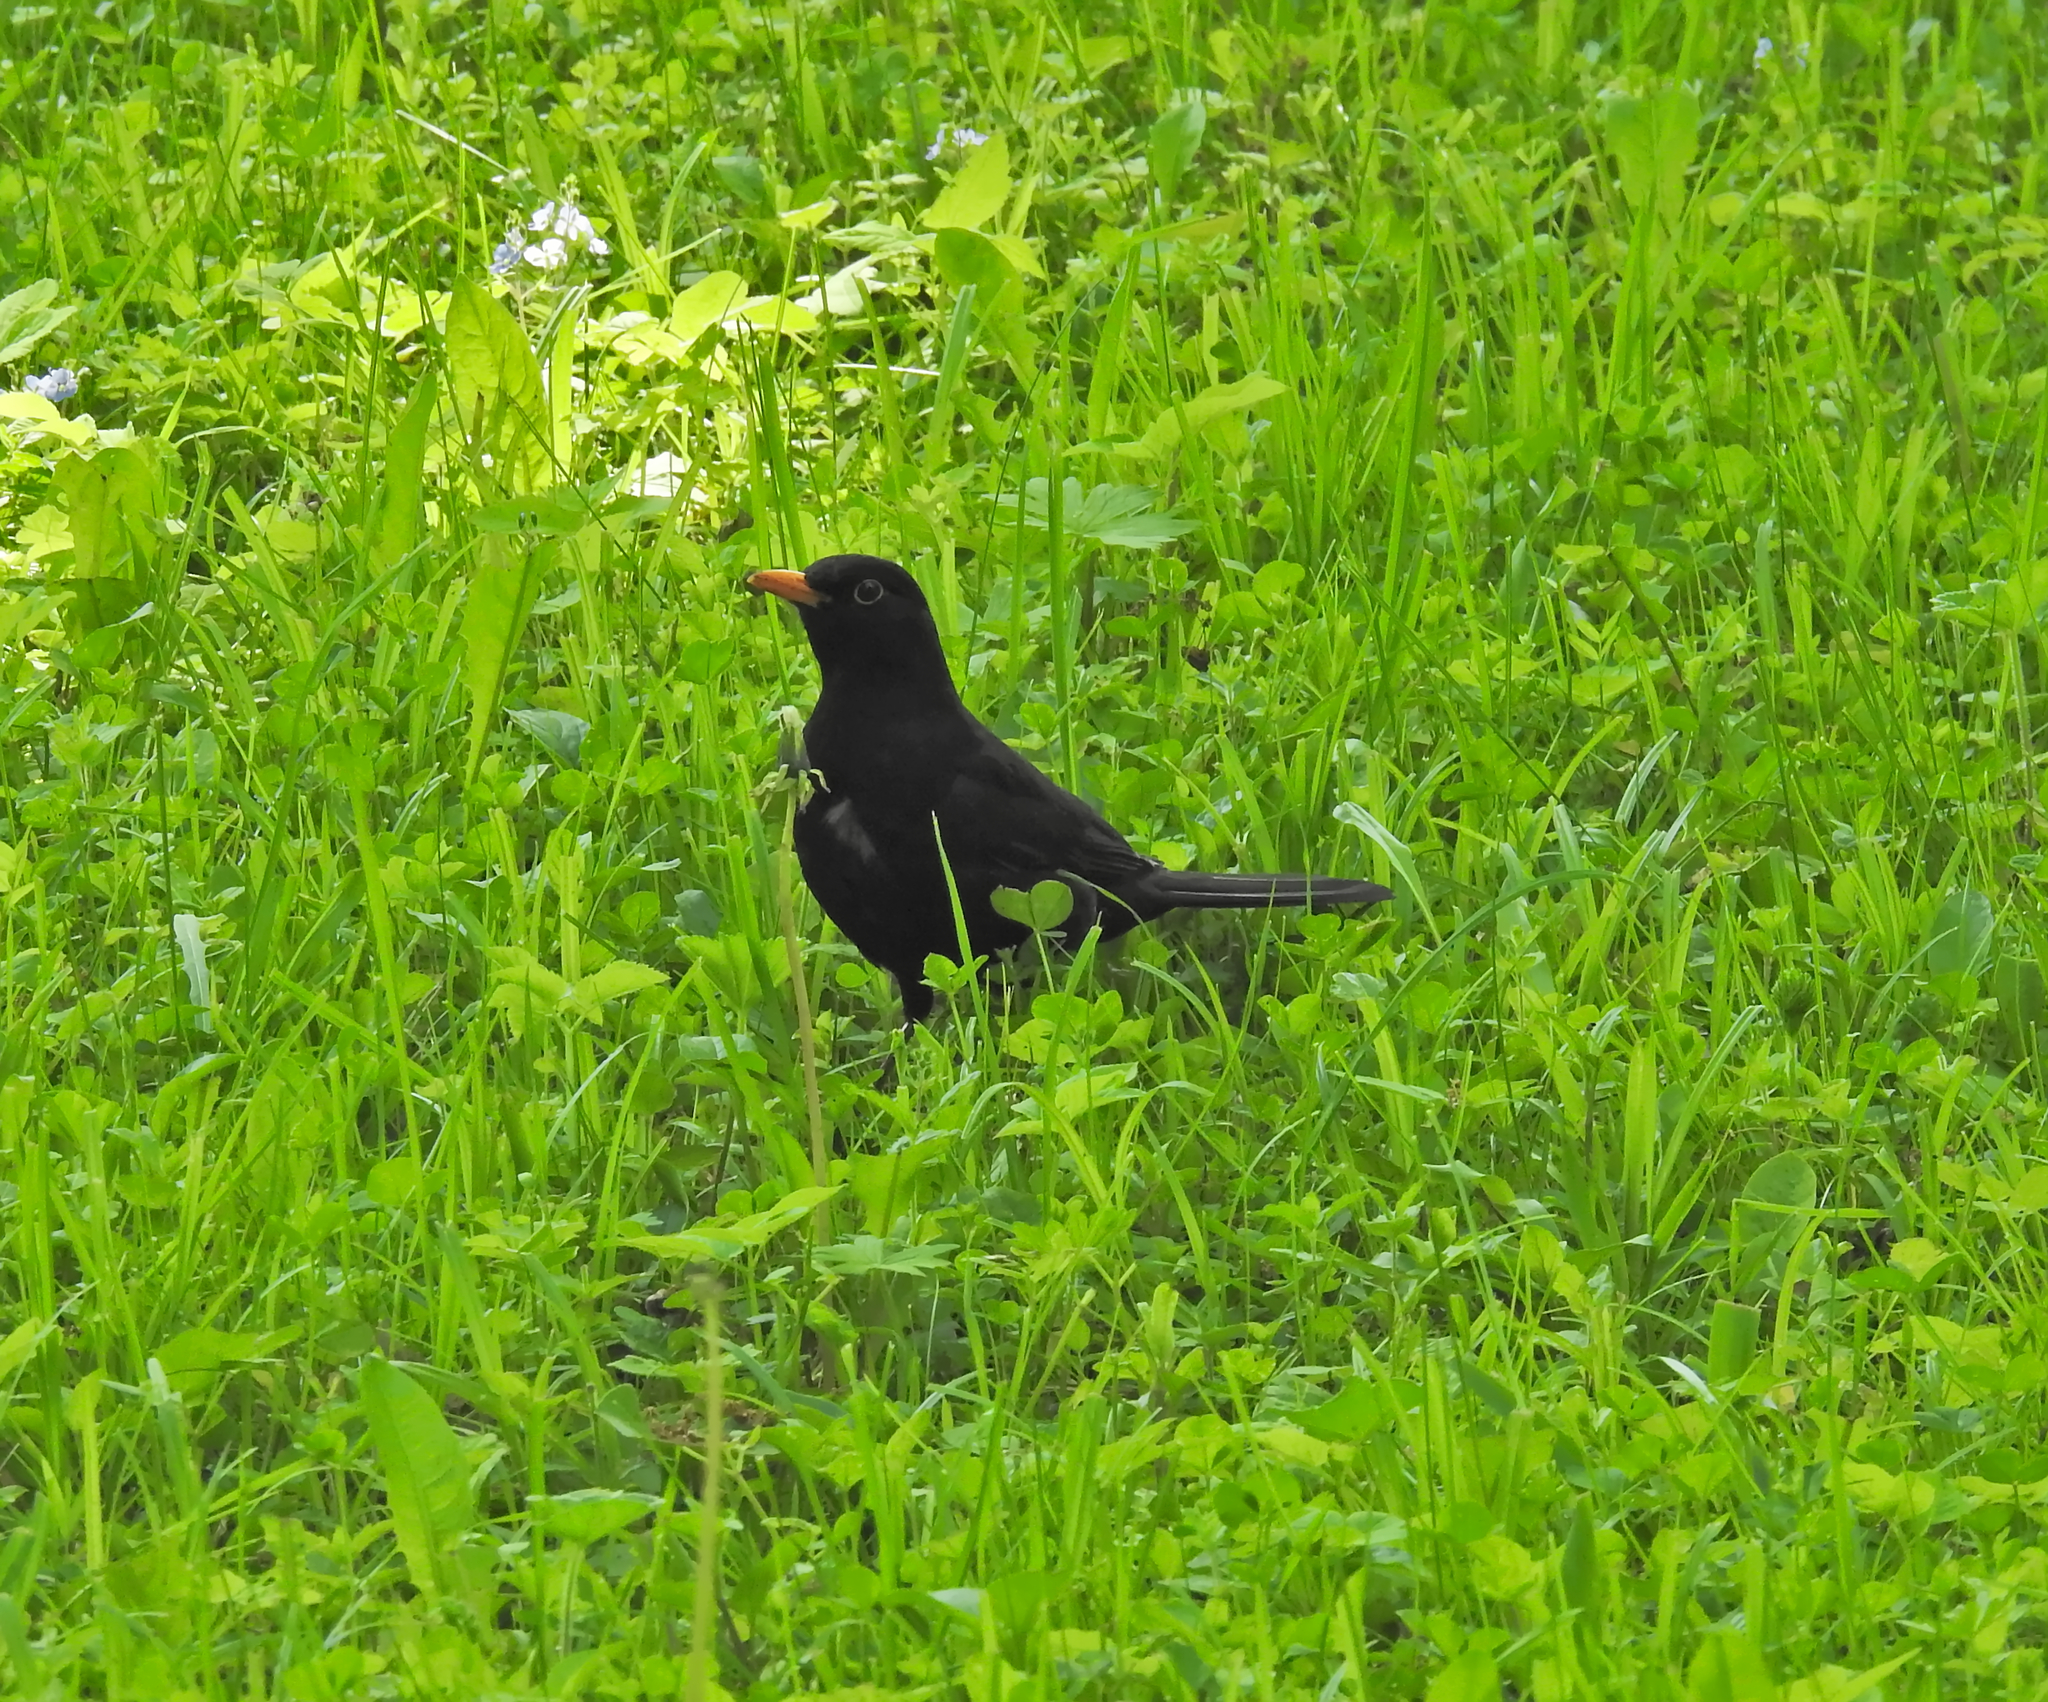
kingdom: Animalia
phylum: Chordata
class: Aves
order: Passeriformes
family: Turdidae
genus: Turdus
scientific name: Turdus merula
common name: Common blackbird
